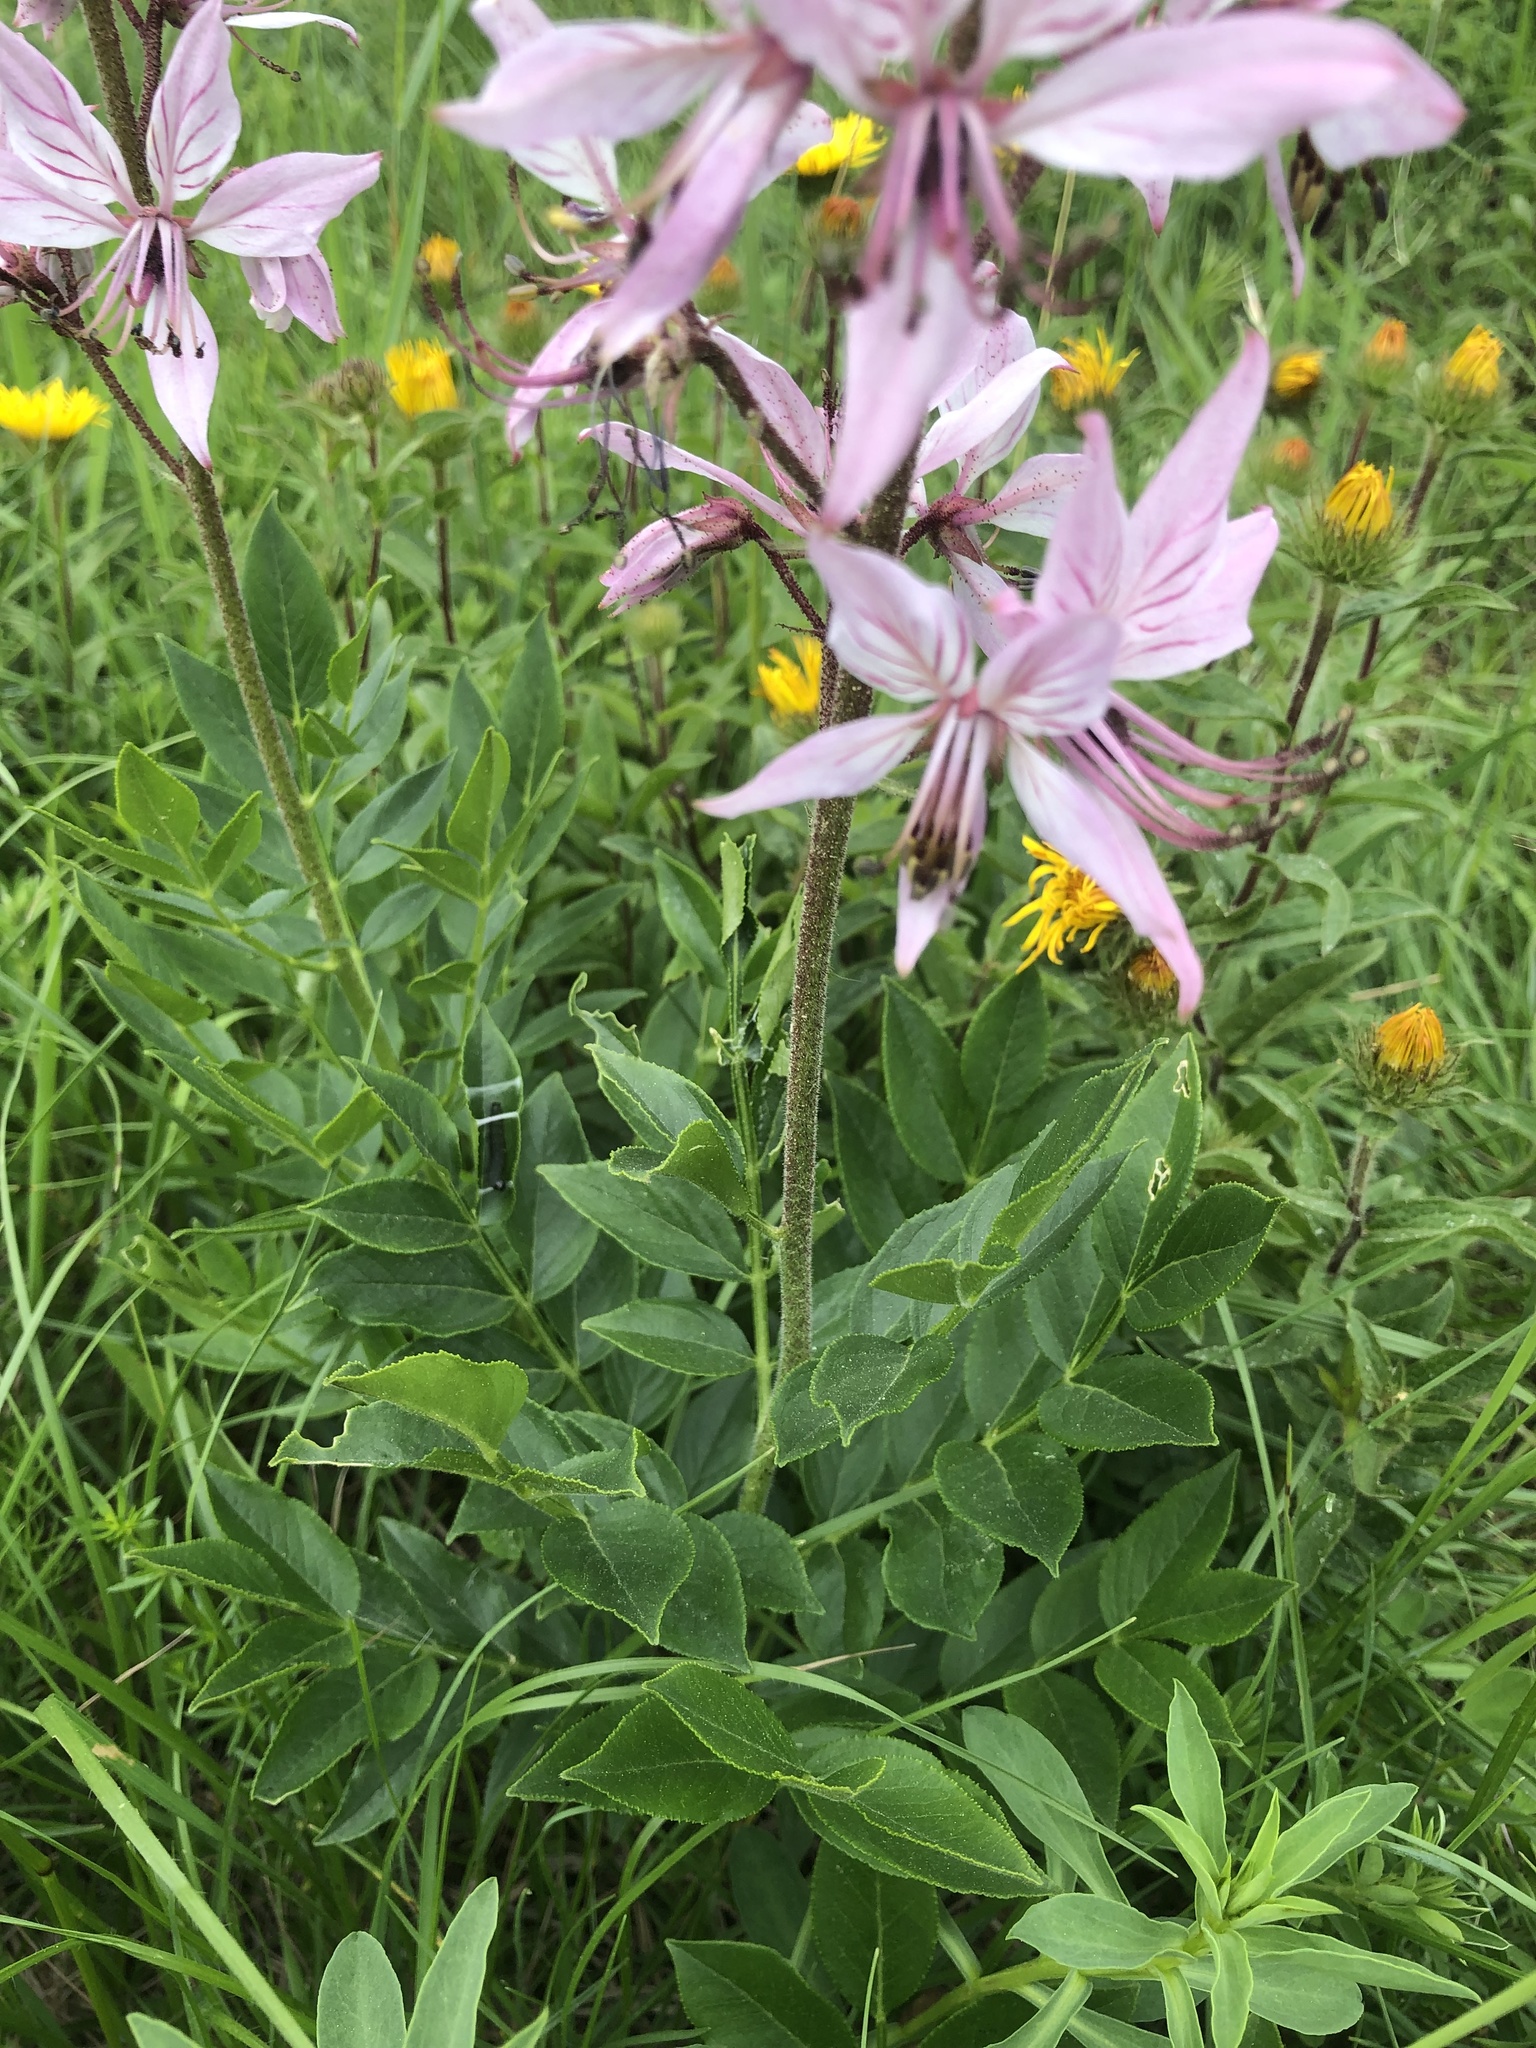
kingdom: Plantae
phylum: Tracheophyta
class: Magnoliopsida
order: Sapindales
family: Rutaceae
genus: Dictamnus
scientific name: Dictamnus albus
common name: Gasplant
